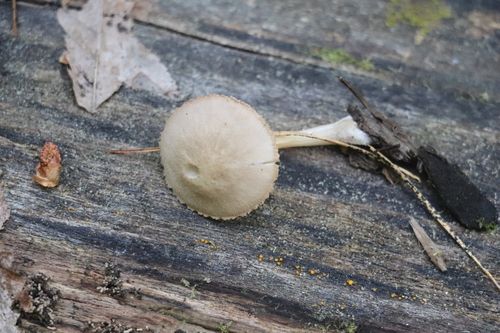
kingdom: Fungi
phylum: Basidiomycota
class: Agaricomycetes
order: Agaricales
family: Pluteaceae
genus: Pluteus
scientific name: Pluteus plautus
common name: Satin shield
